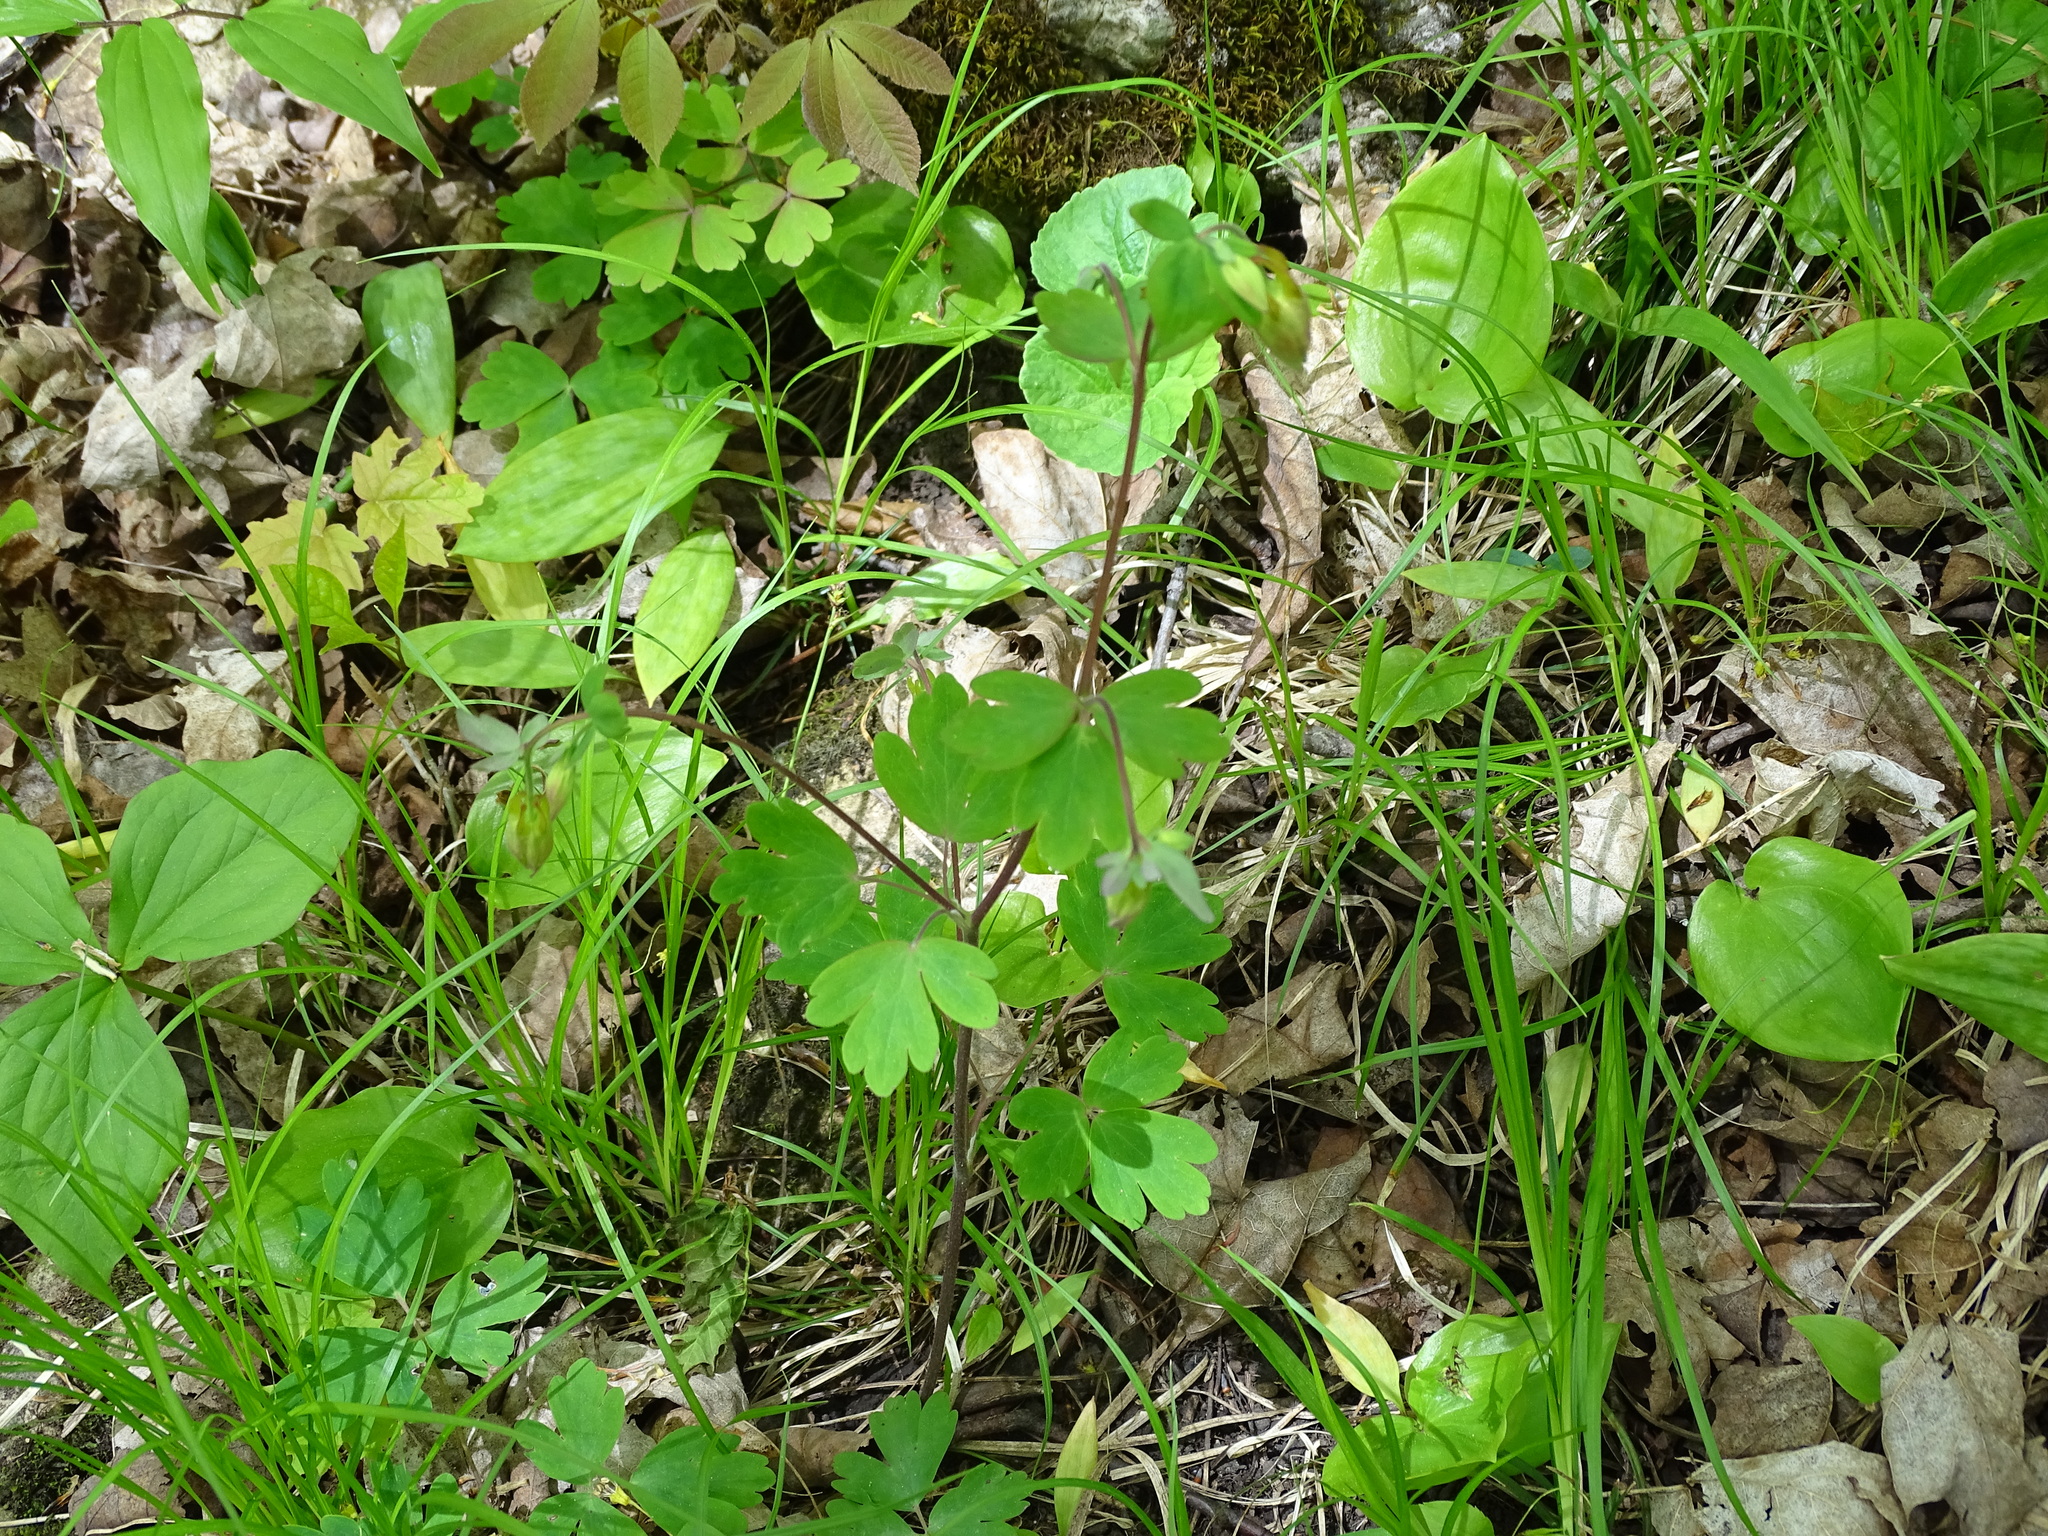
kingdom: Plantae
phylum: Tracheophyta
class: Magnoliopsida
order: Ranunculales
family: Ranunculaceae
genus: Aquilegia
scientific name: Aquilegia canadensis
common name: American columbine
